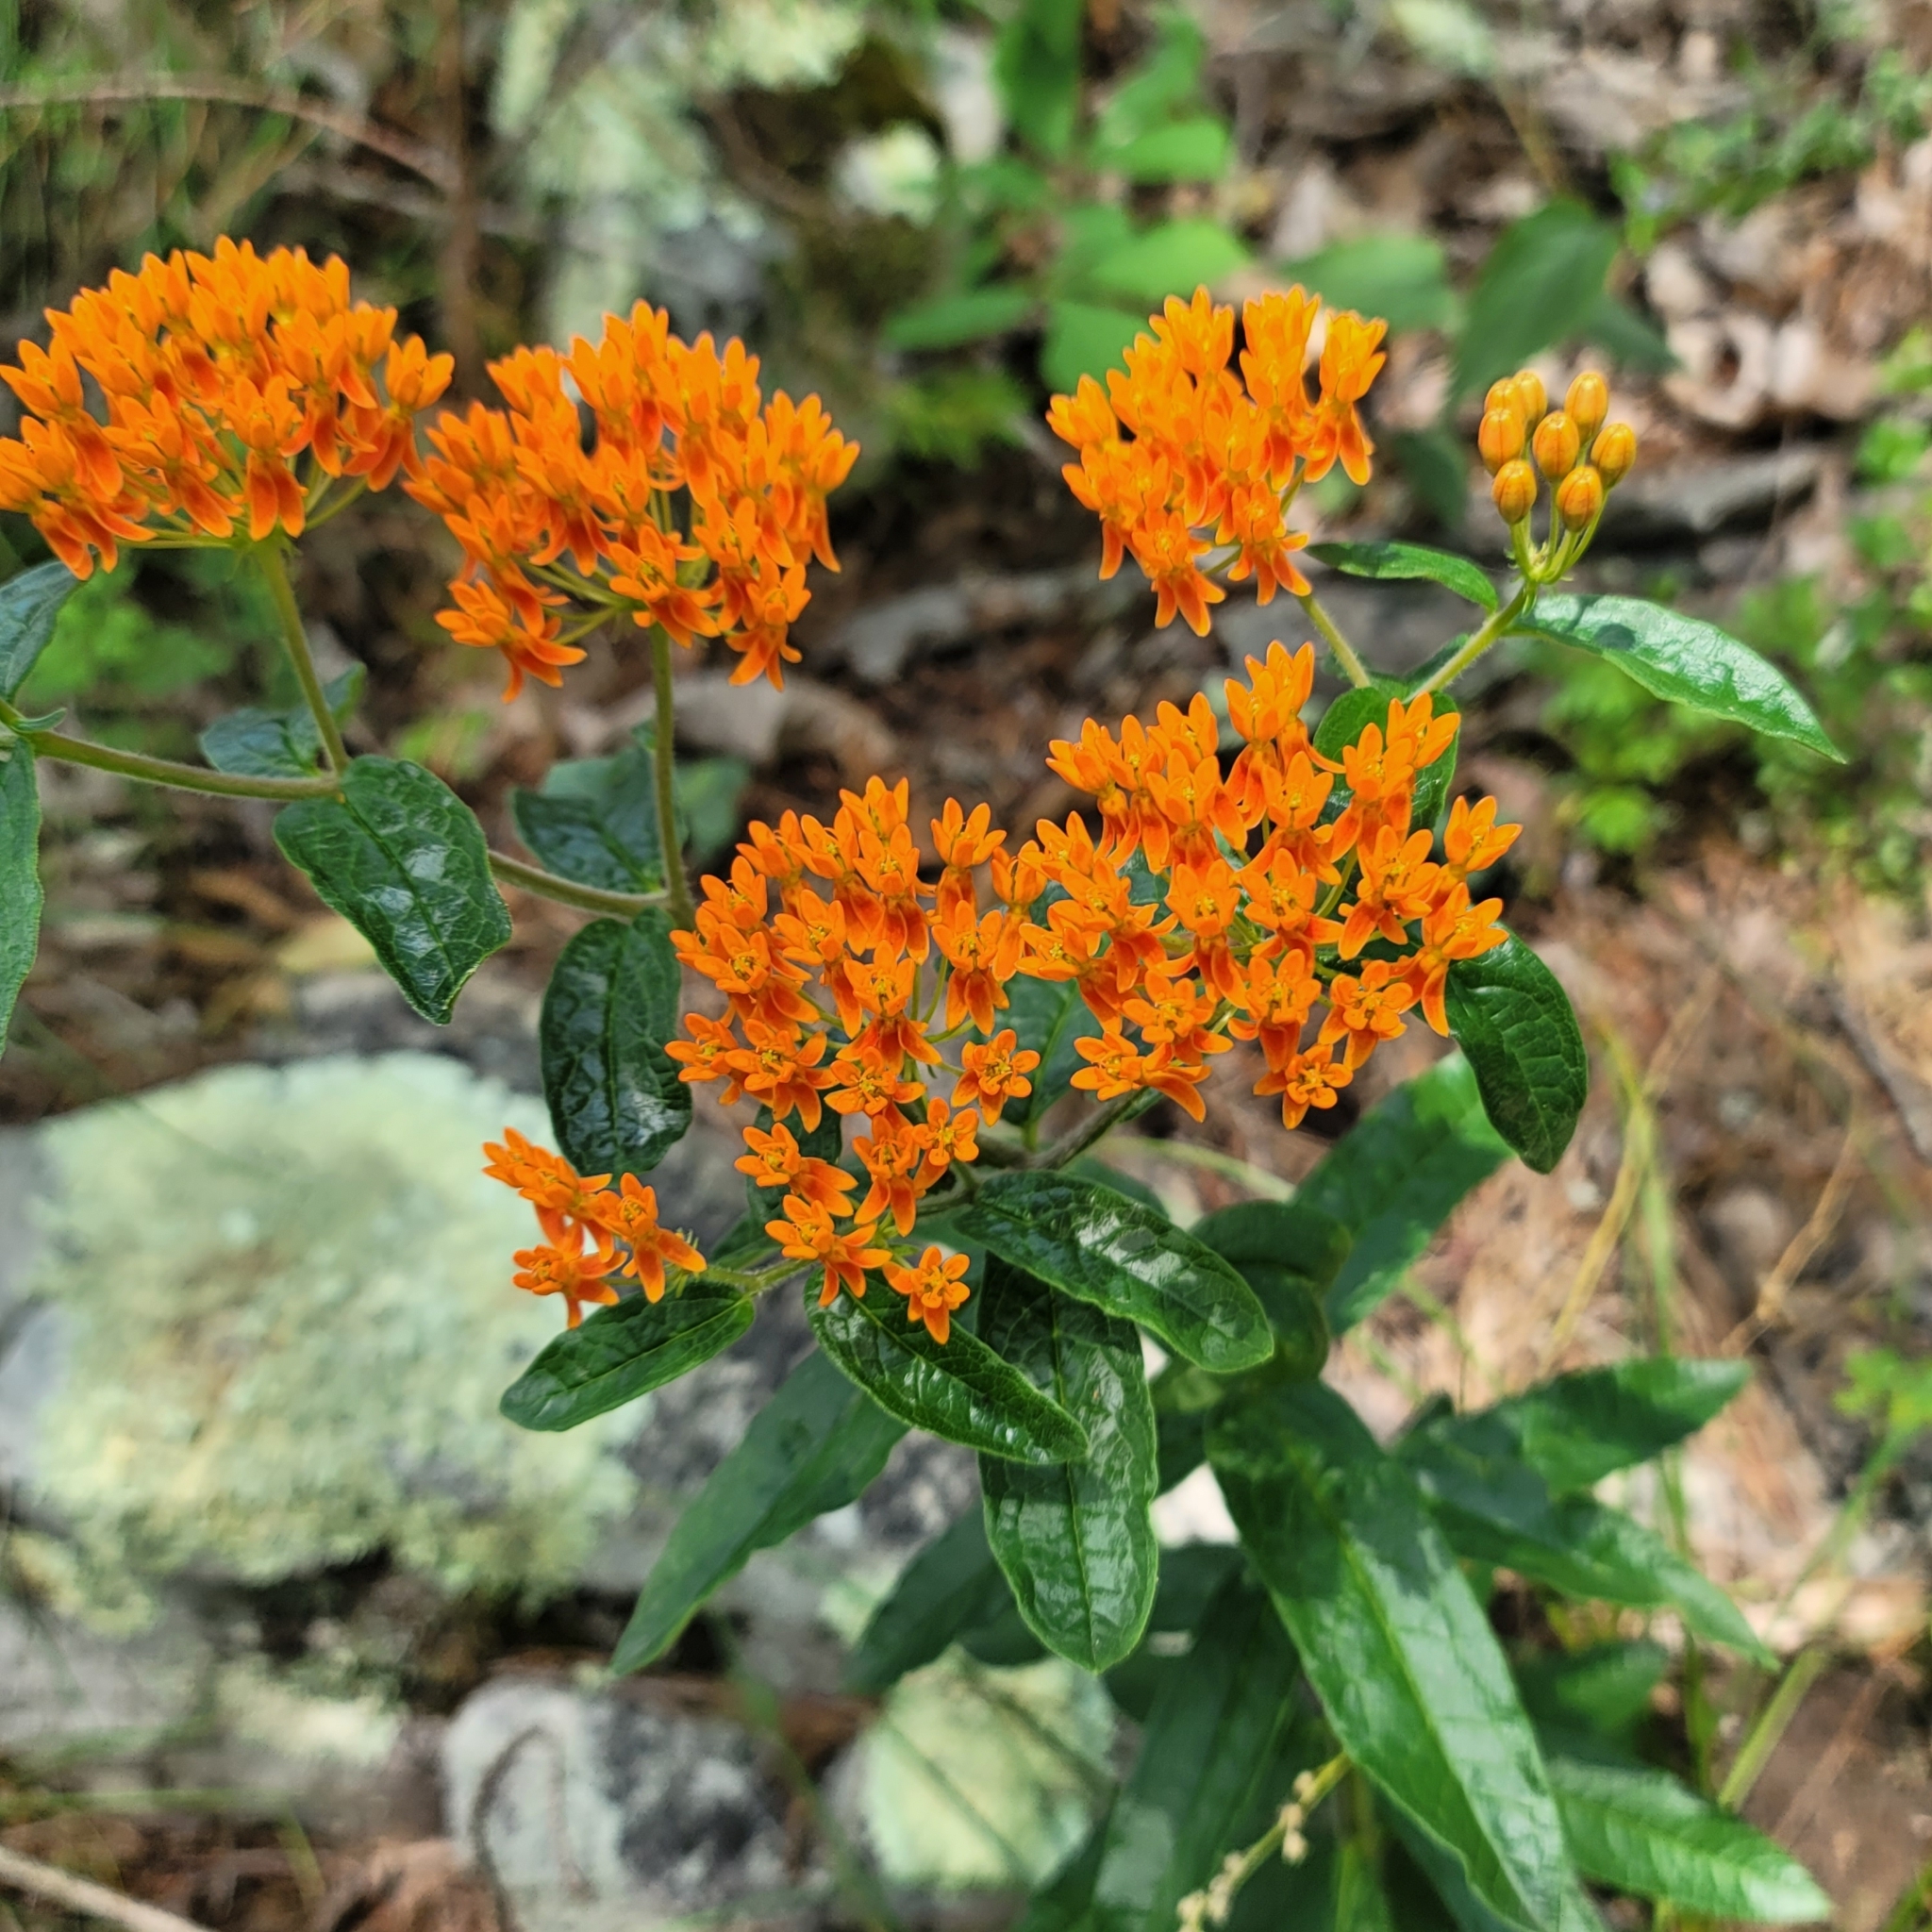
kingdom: Plantae
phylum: Tracheophyta
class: Magnoliopsida
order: Gentianales
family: Apocynaceae
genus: Asclepias
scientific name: Asclepias tuberosa
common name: Butterfly milkweed
